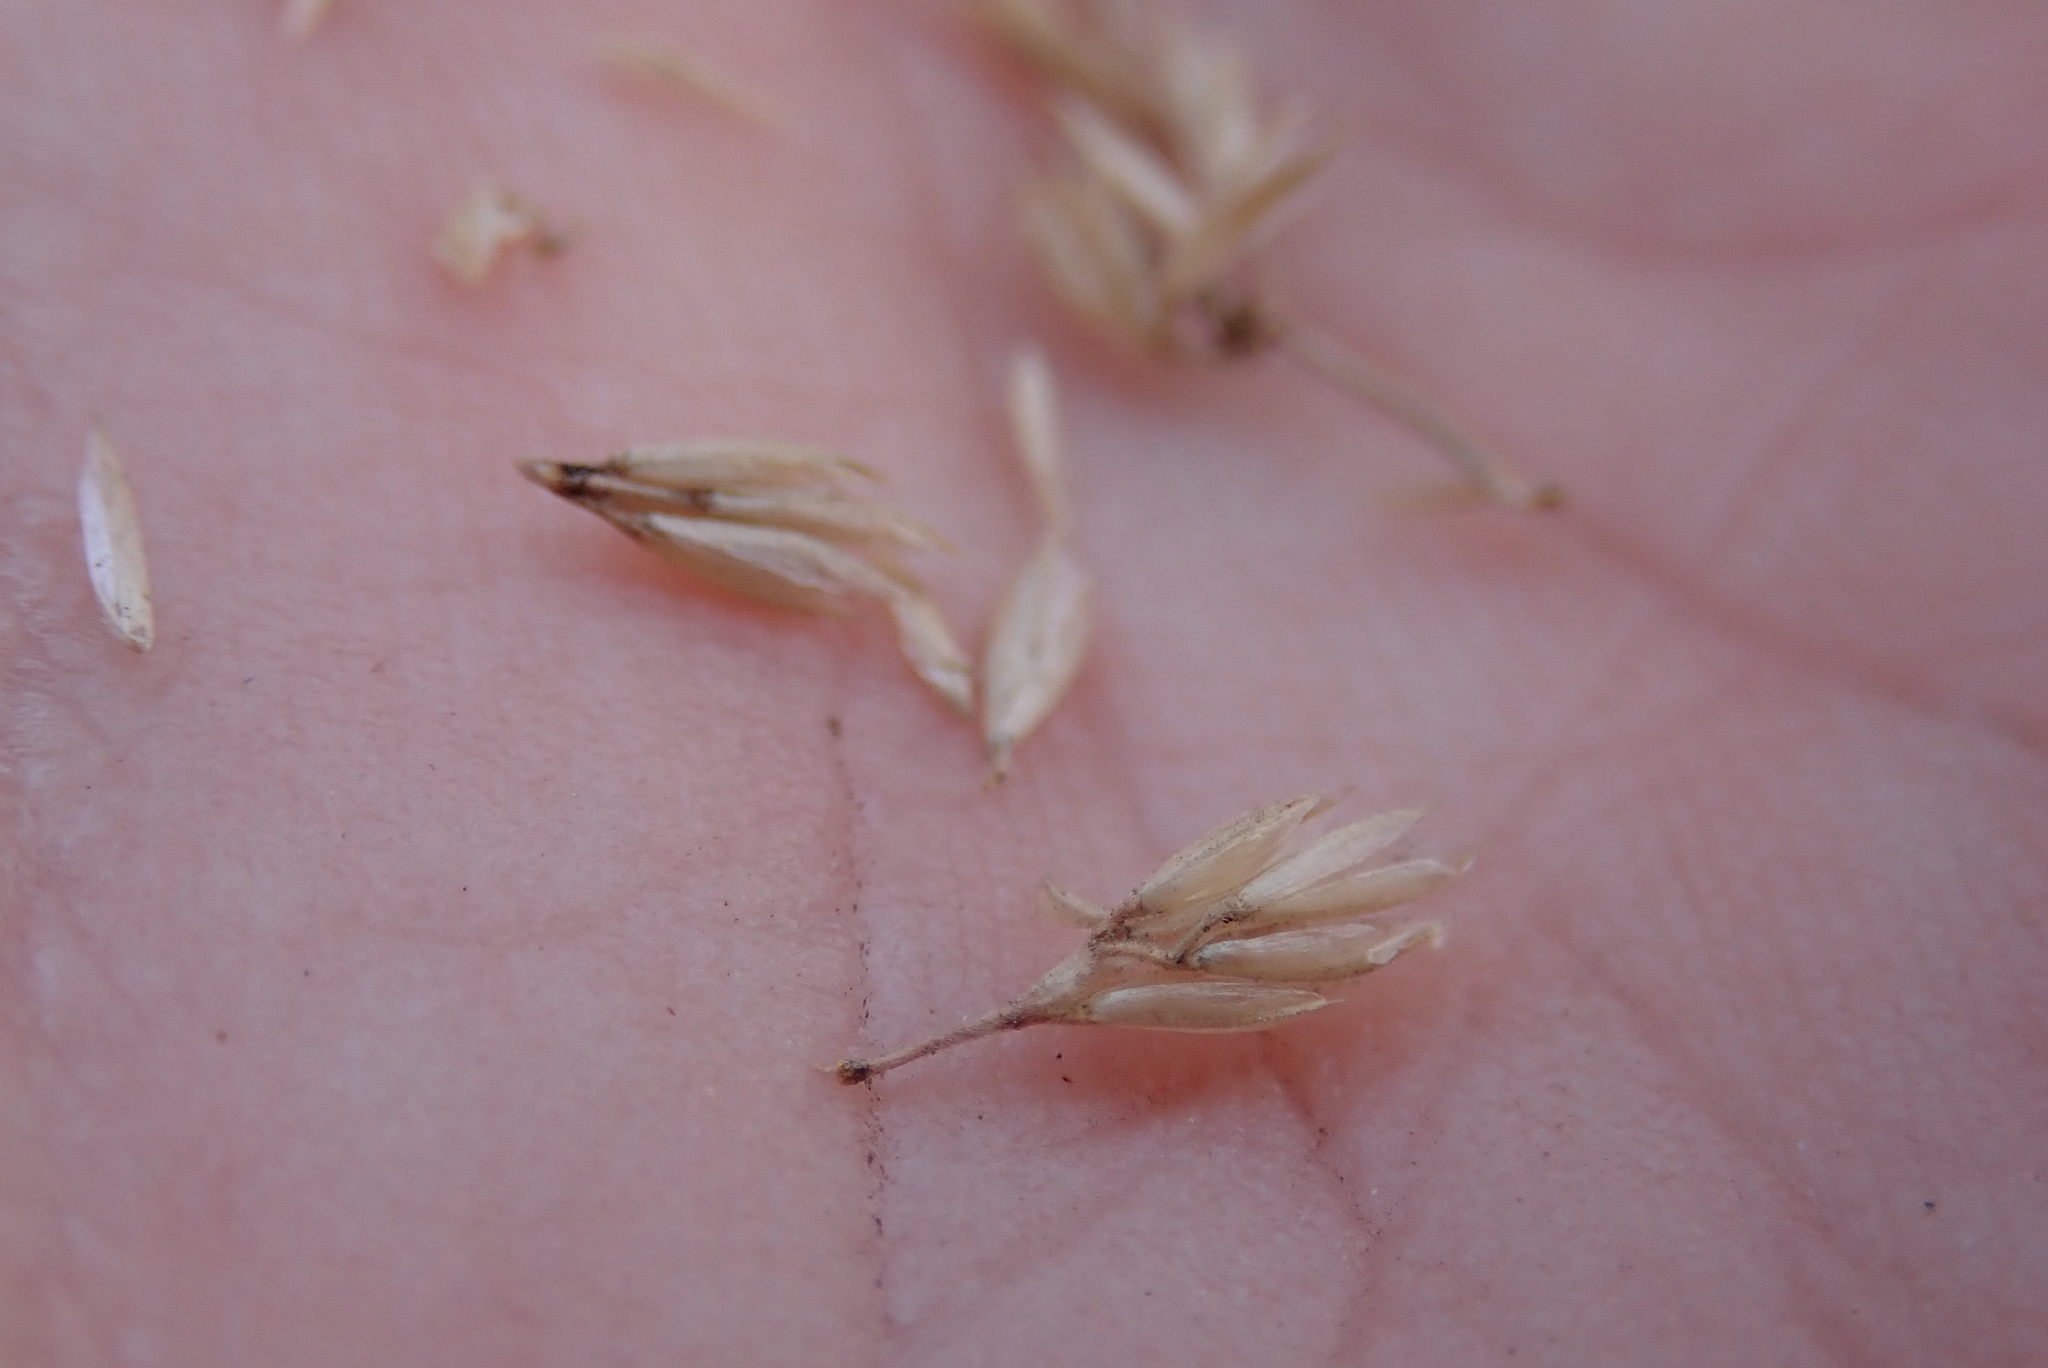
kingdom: Plantae
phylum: Tracheophyta
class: Liliopsida
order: Poales
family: Poaceae
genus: Koeleria
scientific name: Koeleria macrantha
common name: Crested hair-grass
